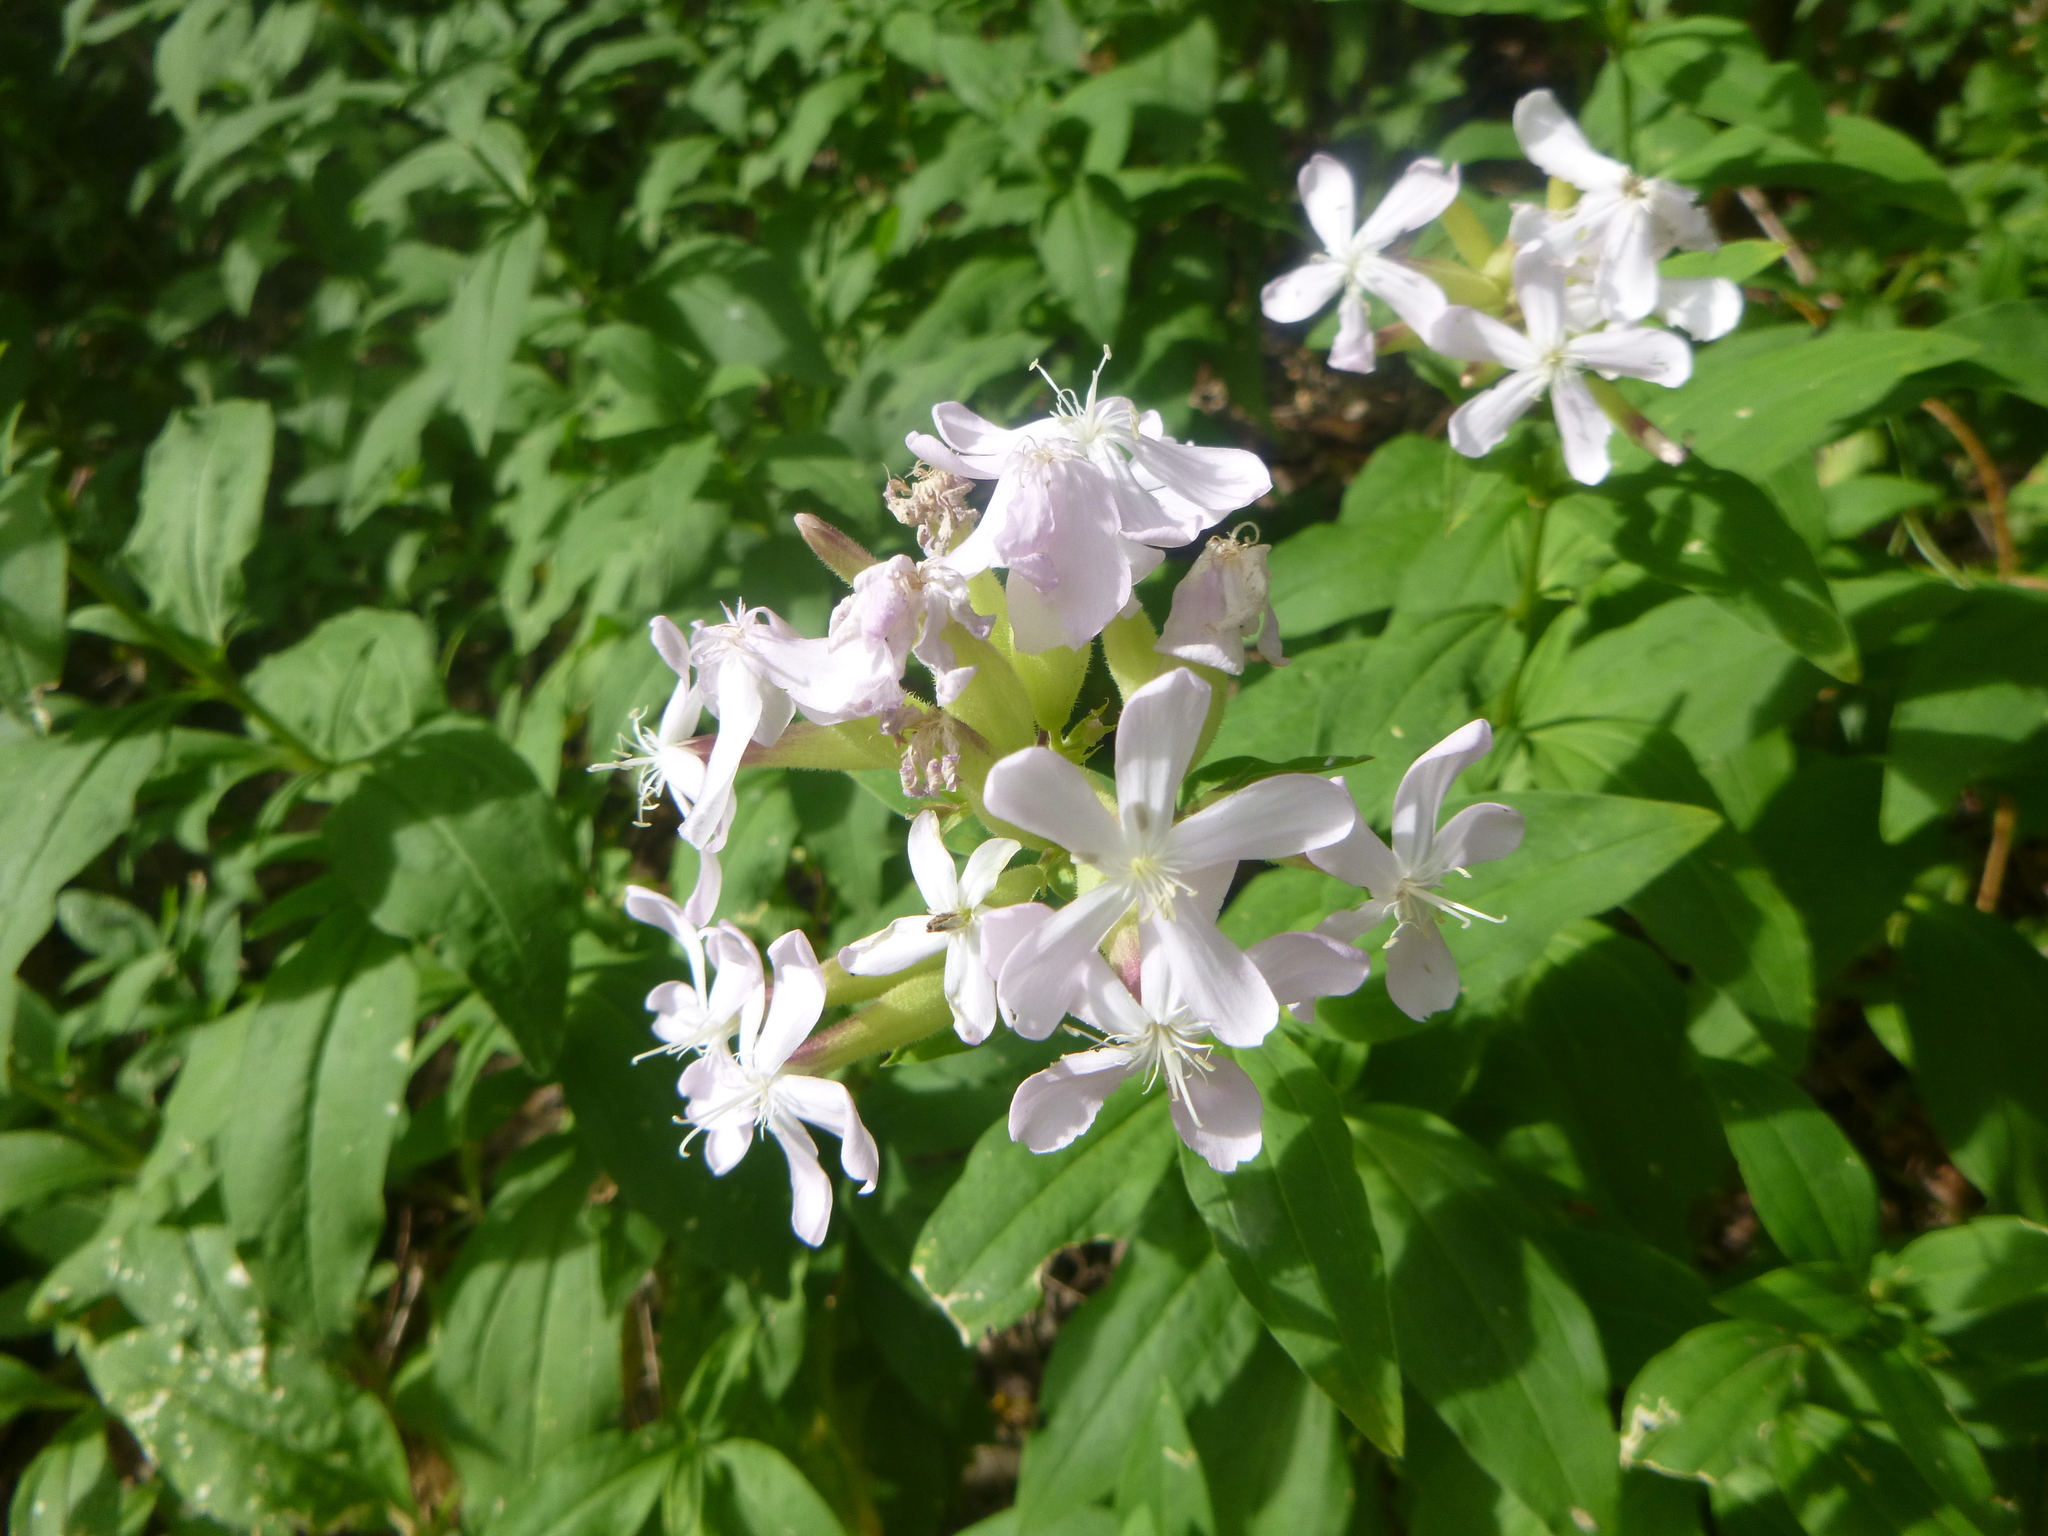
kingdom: Plantae
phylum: Tracheophyta
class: Magnoliopsida
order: Caryophyllales
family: Caryophyllaceae
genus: Saponaria
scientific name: Saponaria officinalis
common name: Soapwort
